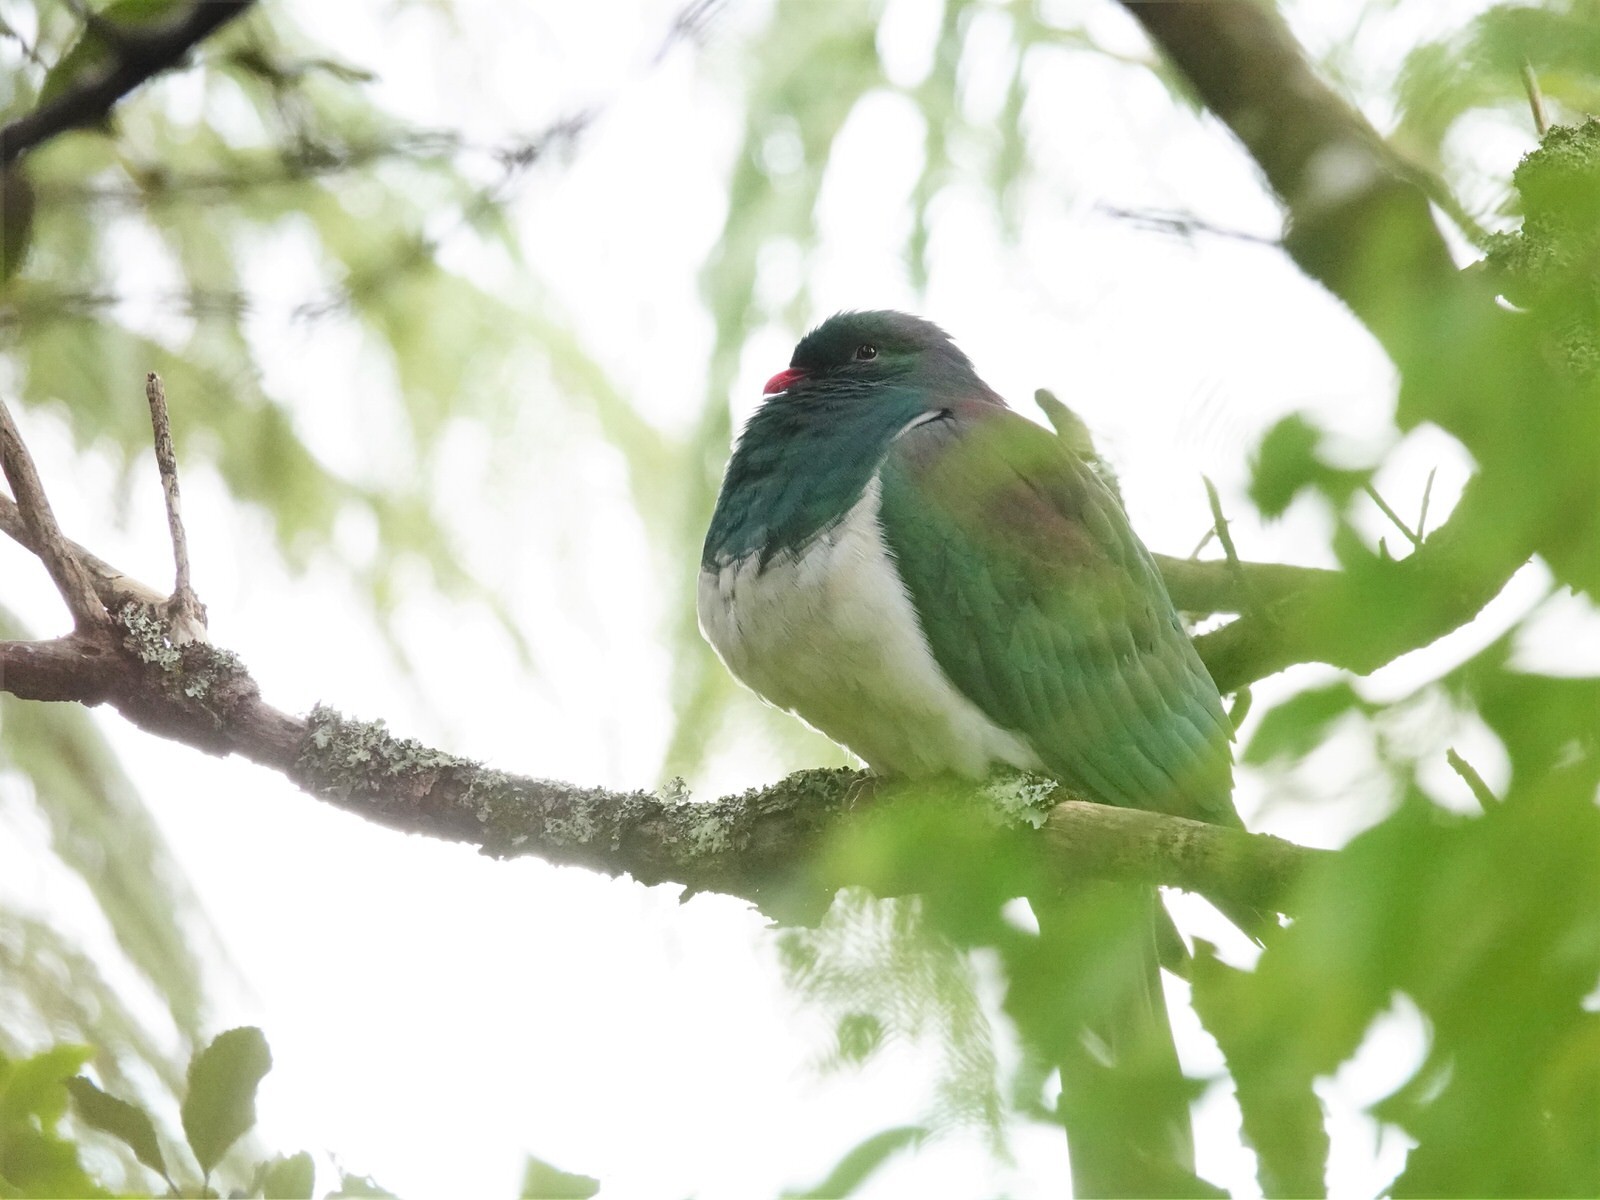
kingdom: Animalia
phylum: Chordata
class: Aves
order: Columbiformes
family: Columbidae
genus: Hemiphaga
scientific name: Hemiphaga novaeseelandiae
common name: New zealand pigeon
